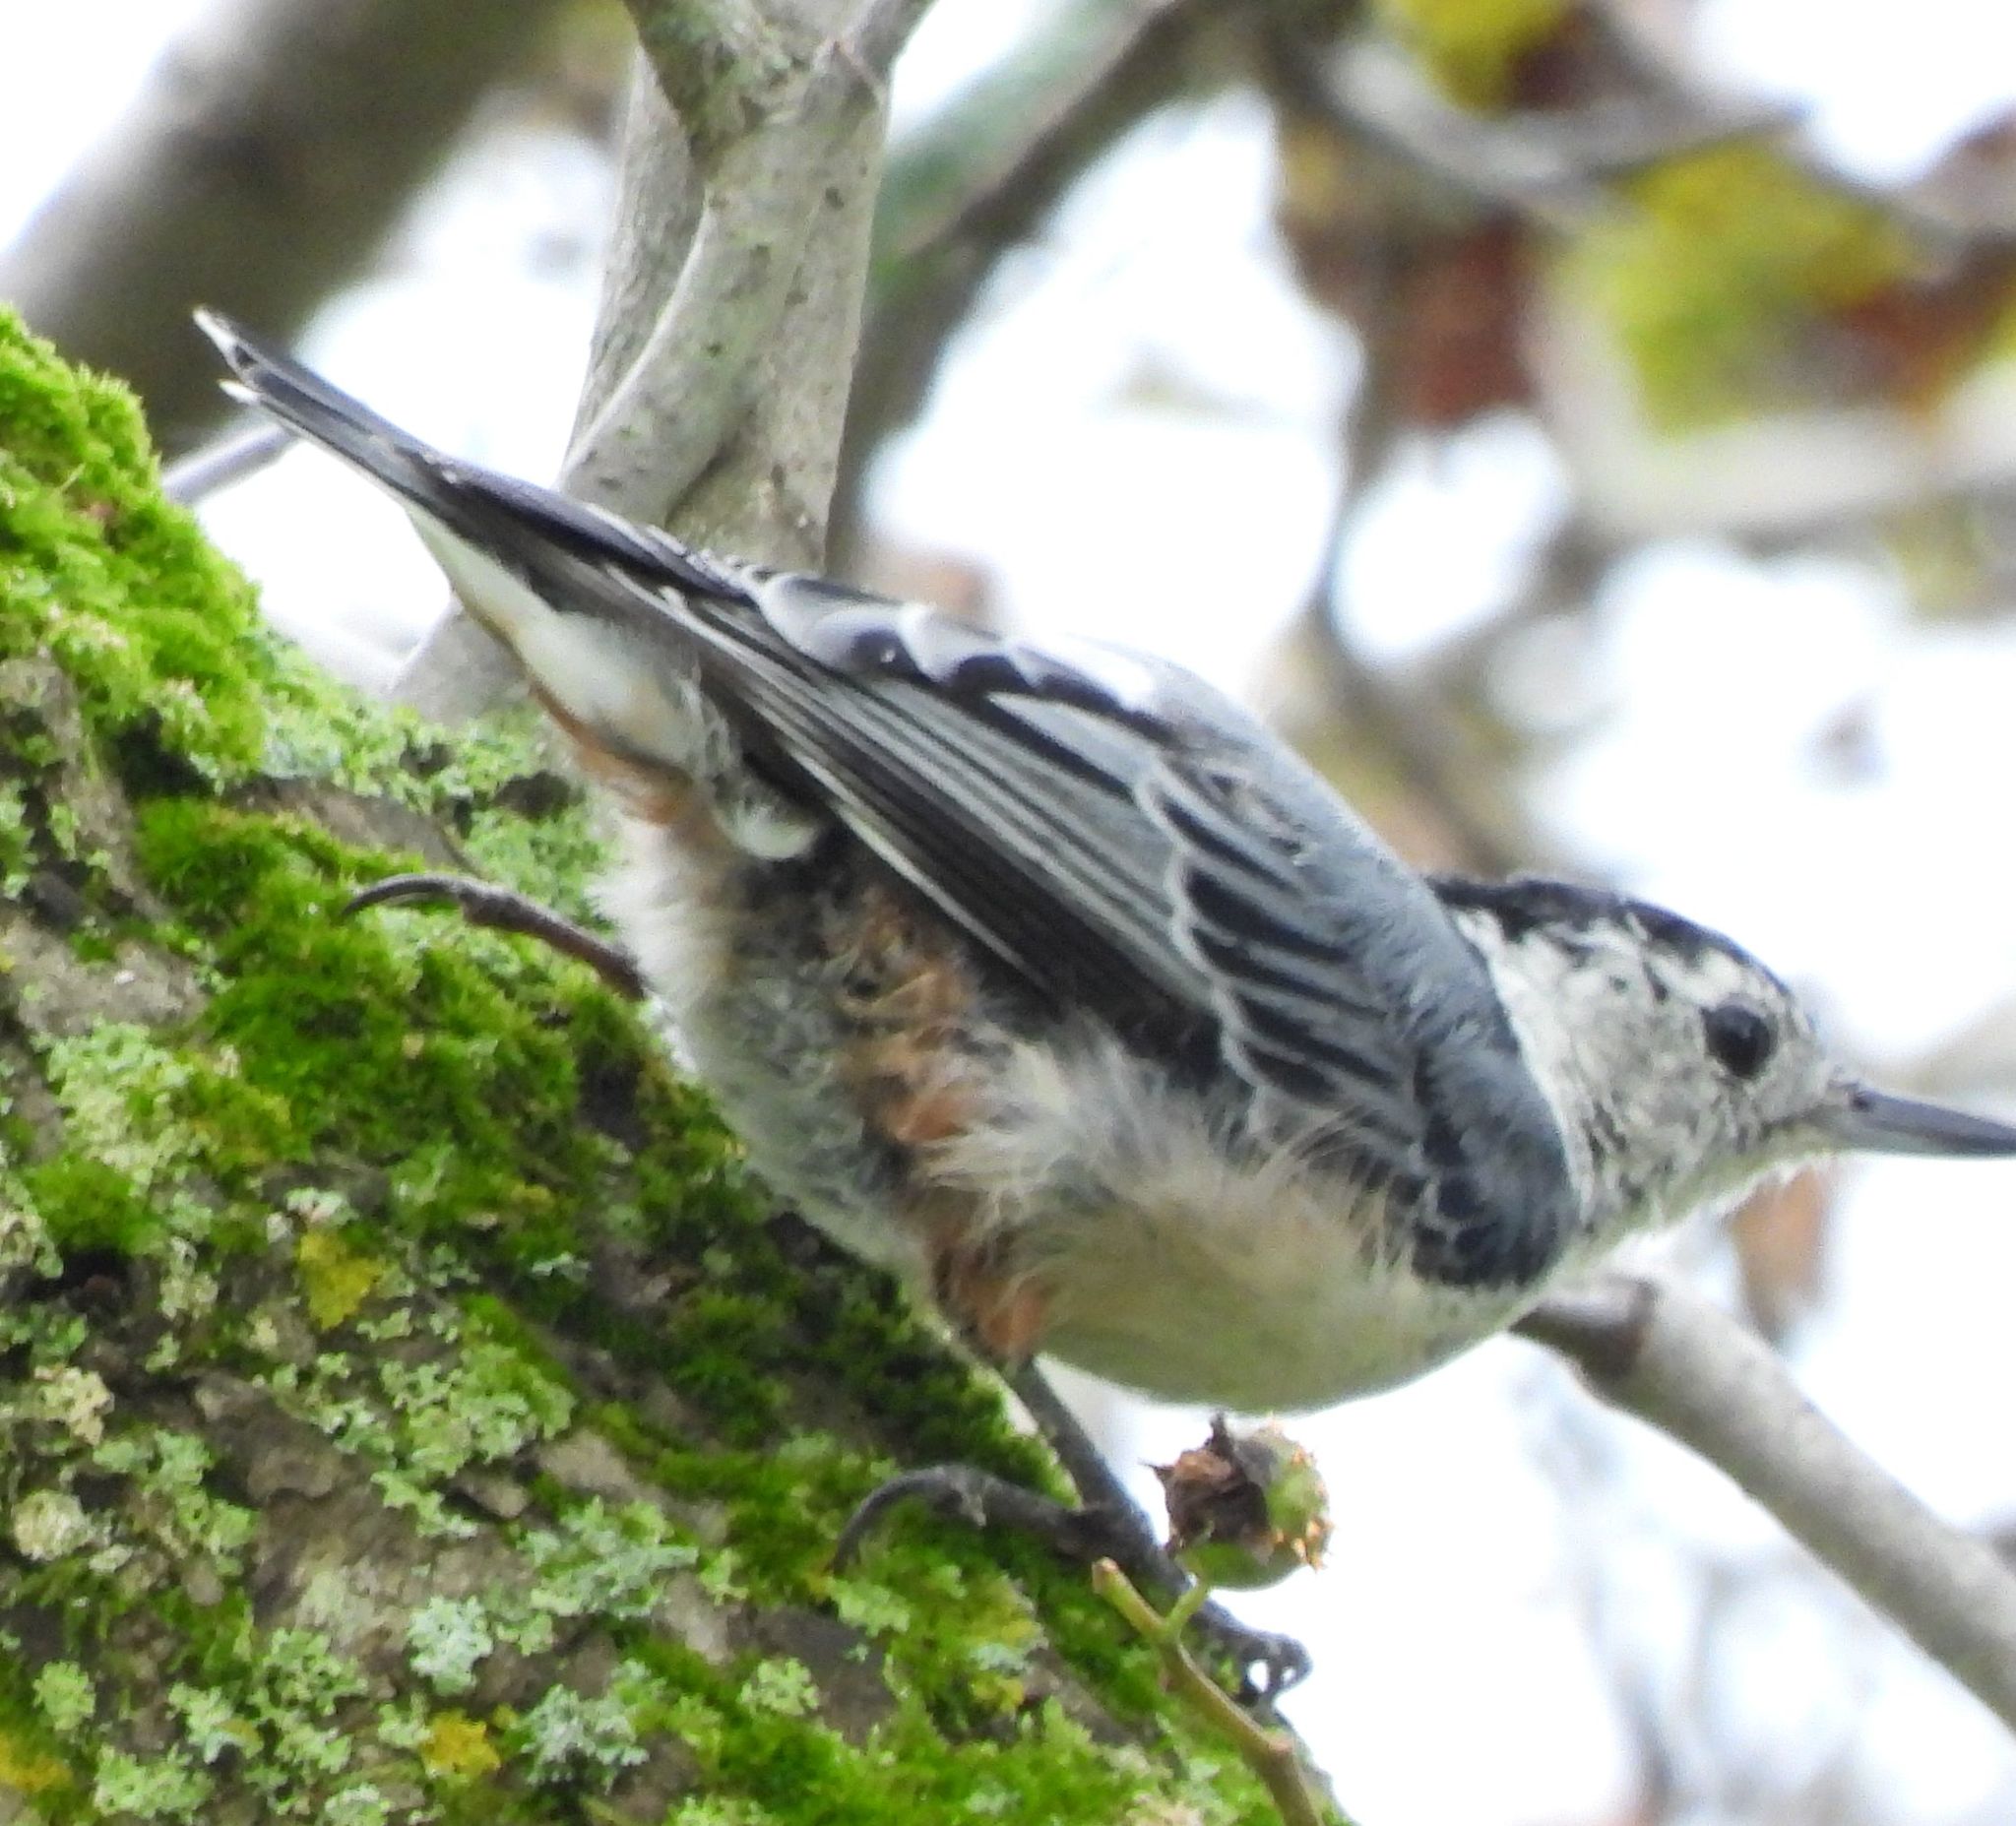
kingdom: Animalia
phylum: Chordata
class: Aves
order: Passeriformes
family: Sittidae
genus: Sitta
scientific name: Sitta carolinensis
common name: White-breasted nuthatch
